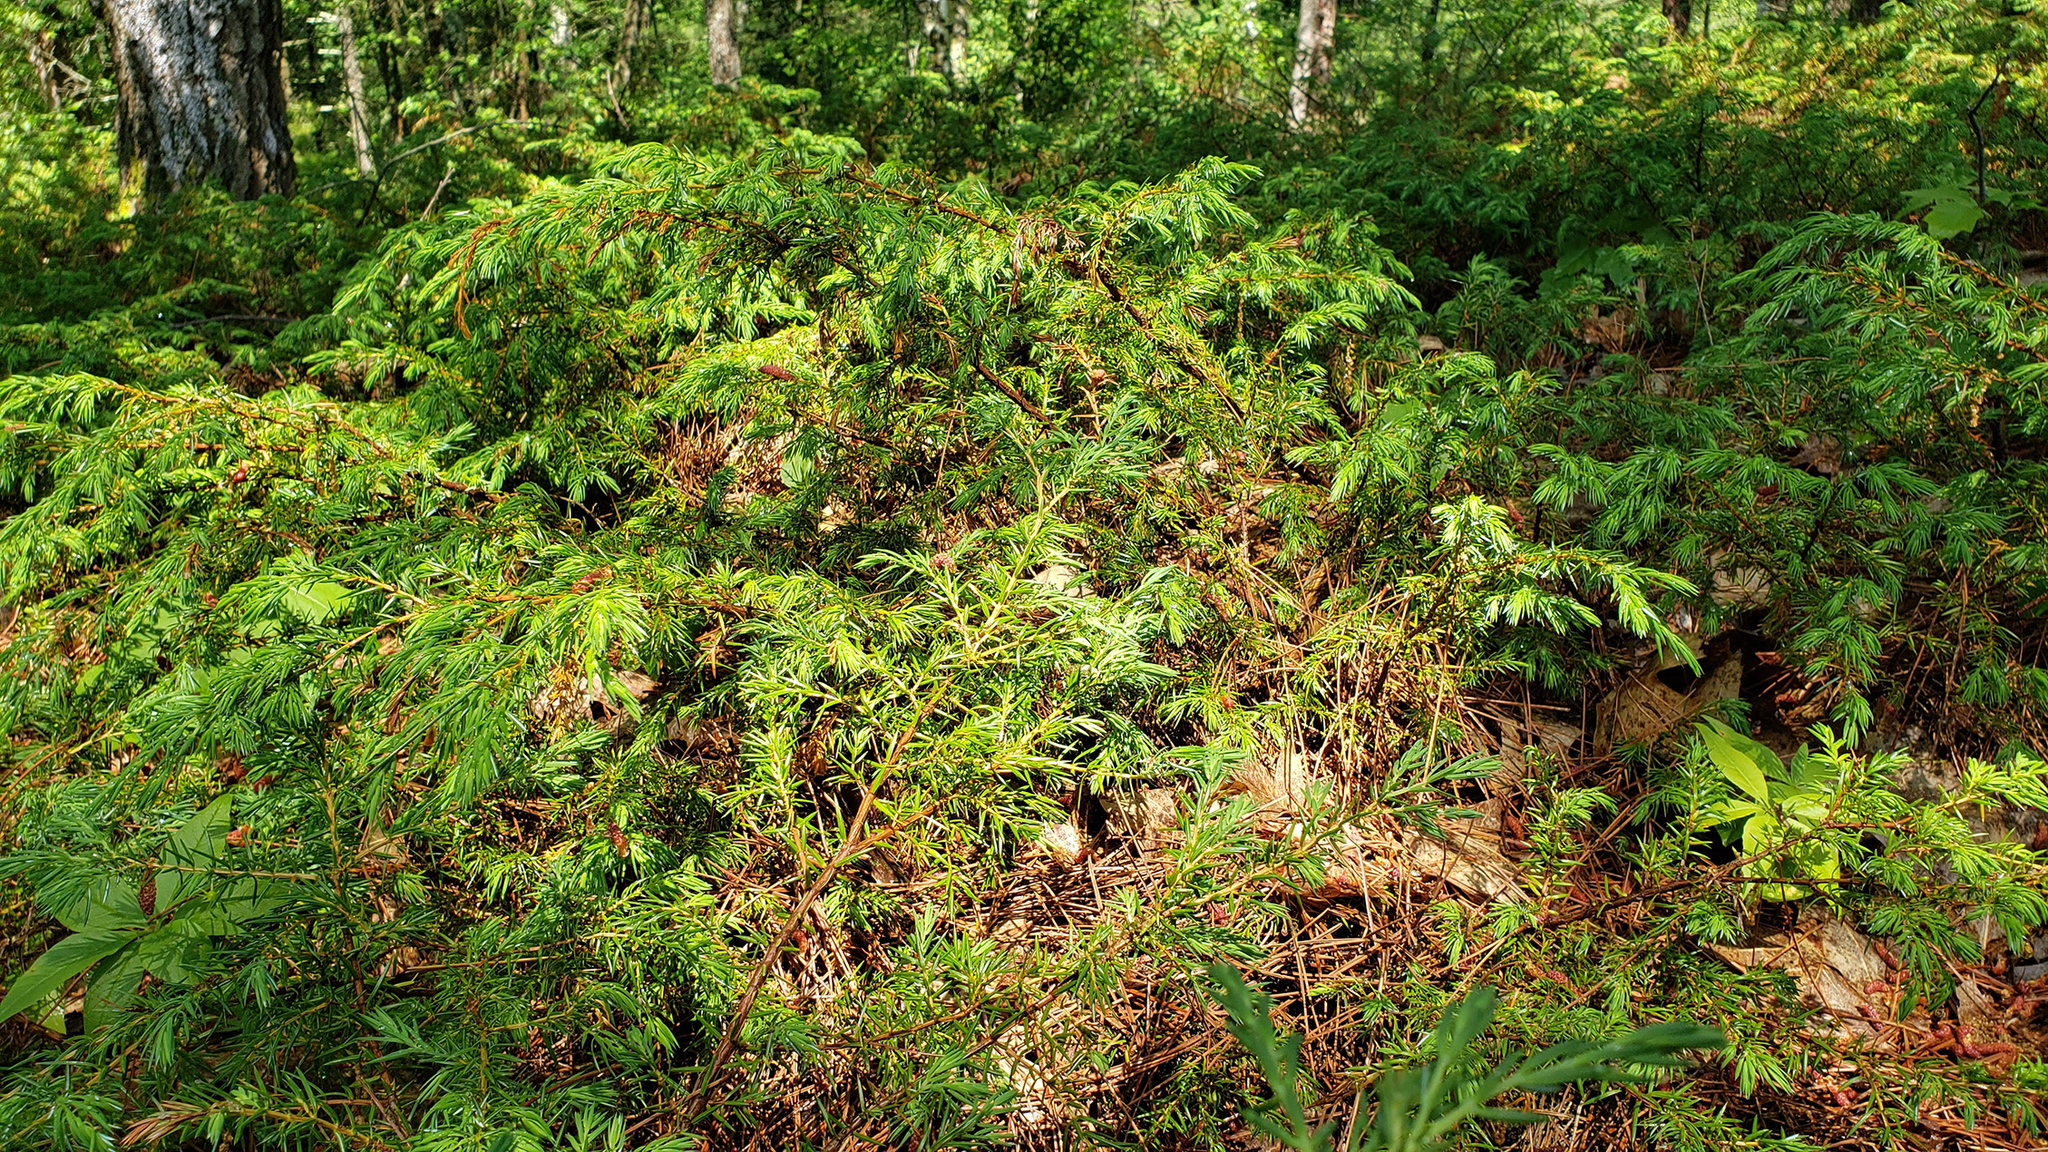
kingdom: Plantae
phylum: Tracheophyta
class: Pinopsida
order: Pinales
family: Cupressaceae
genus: Juniperus
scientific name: Juniperus communis
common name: Common juniper
